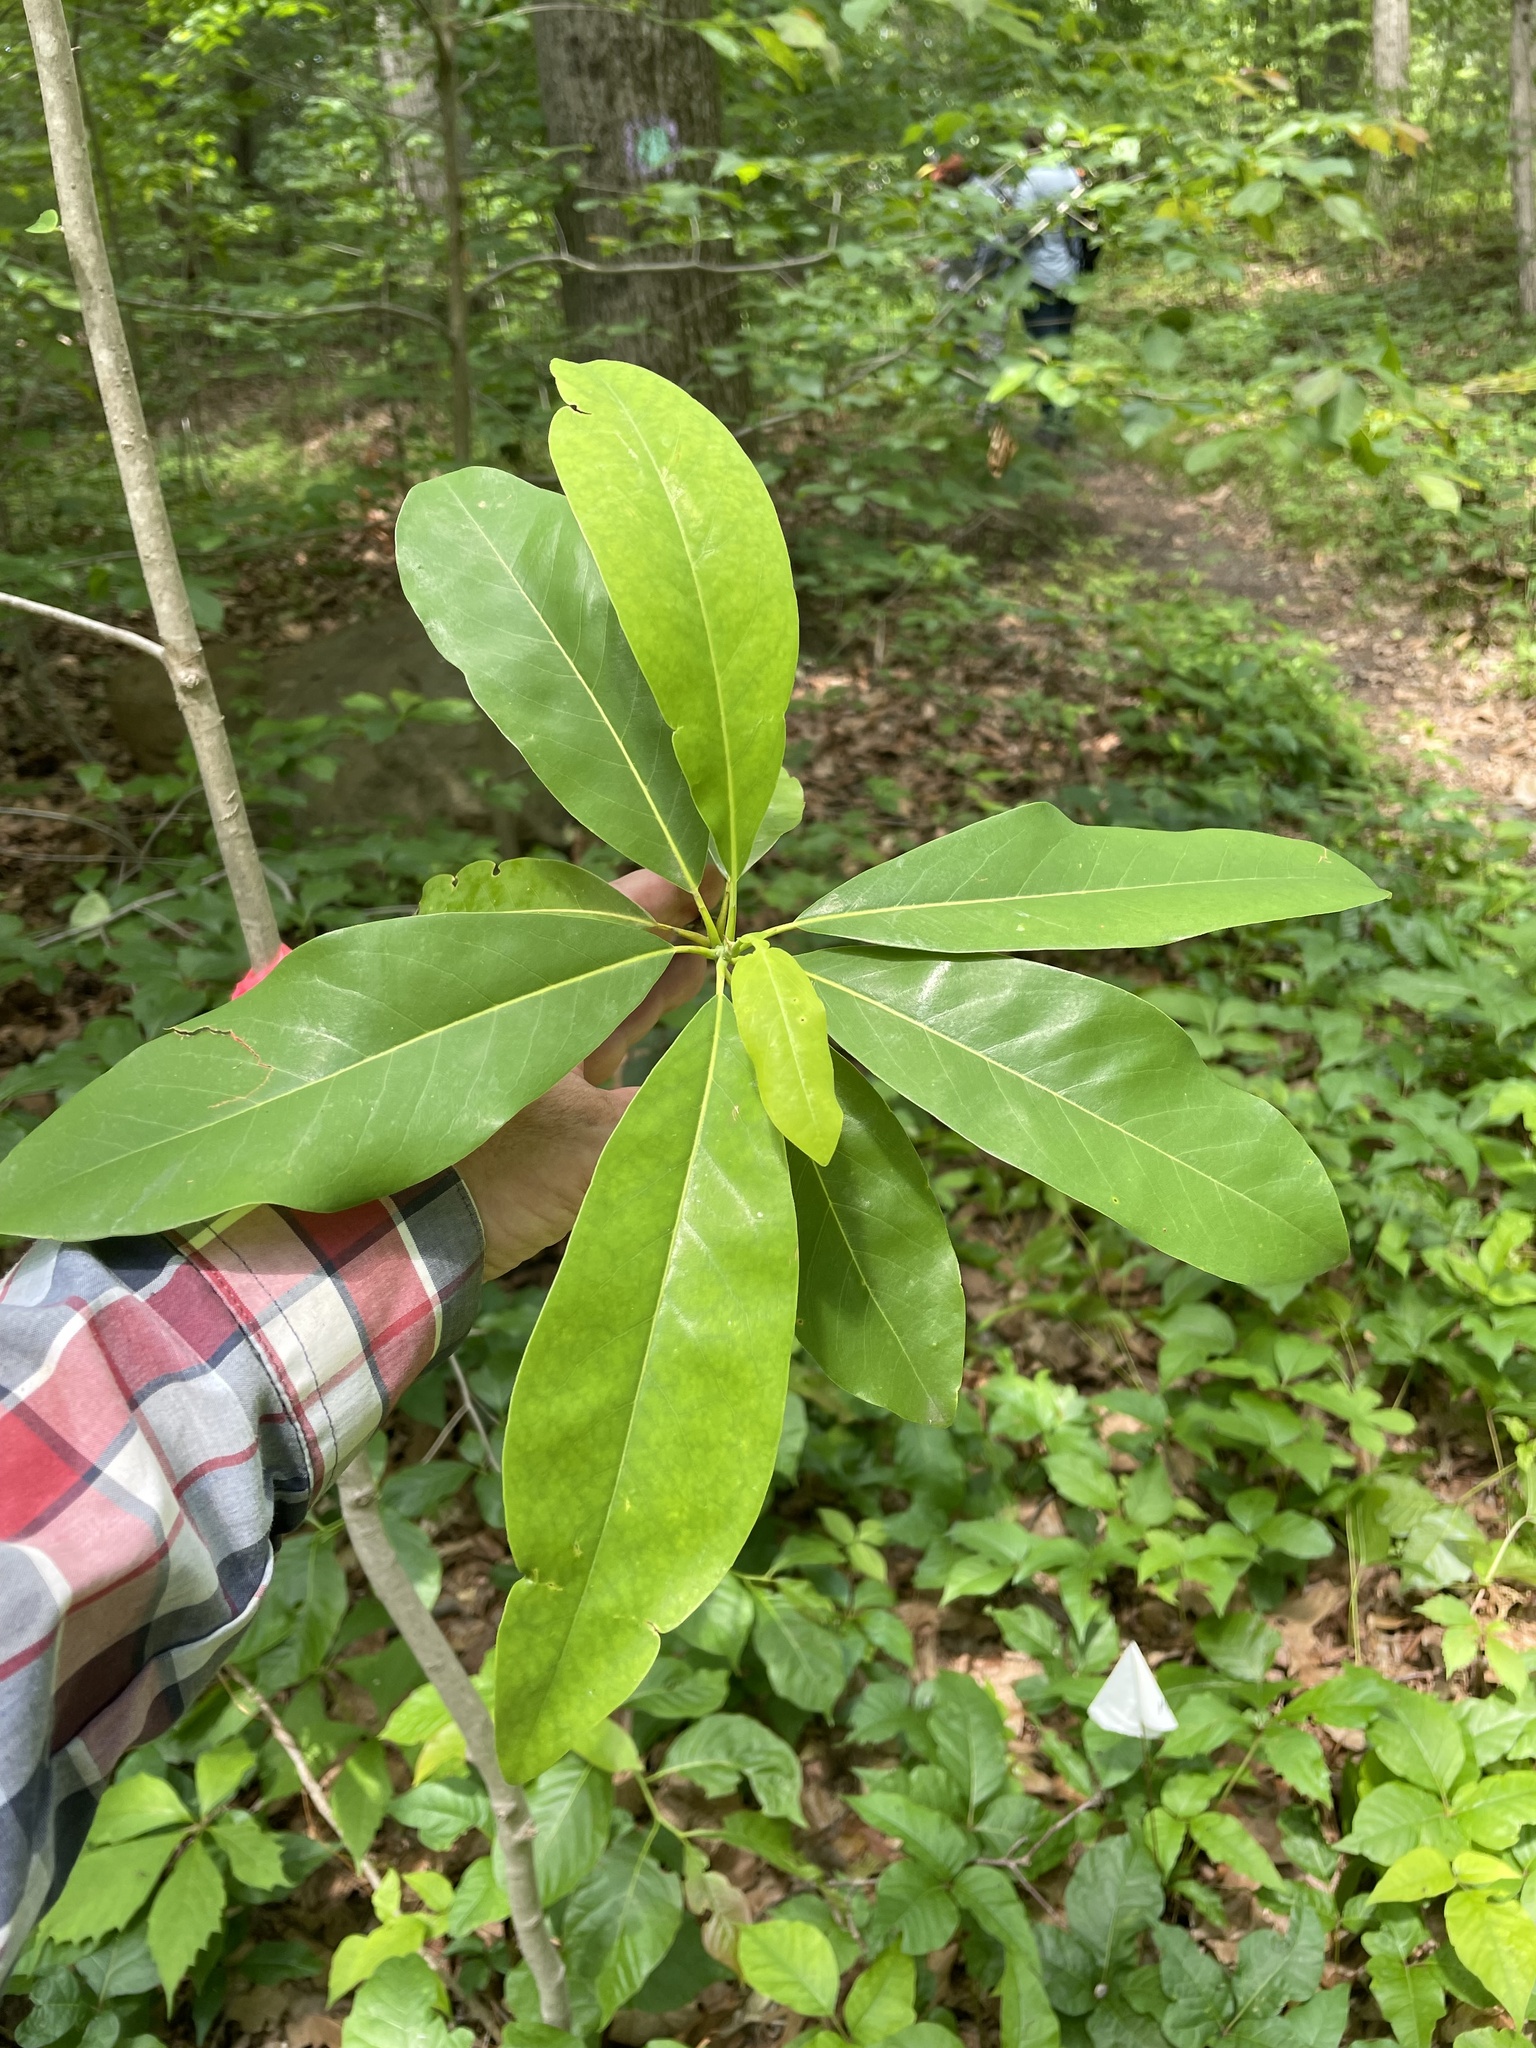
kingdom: Plantae
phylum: Tracheophyta
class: Magnoliopsida
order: Magnoliales
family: Magnoliaceae
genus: Magnolia
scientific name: Magnolia virginiana
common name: Swamp bay
